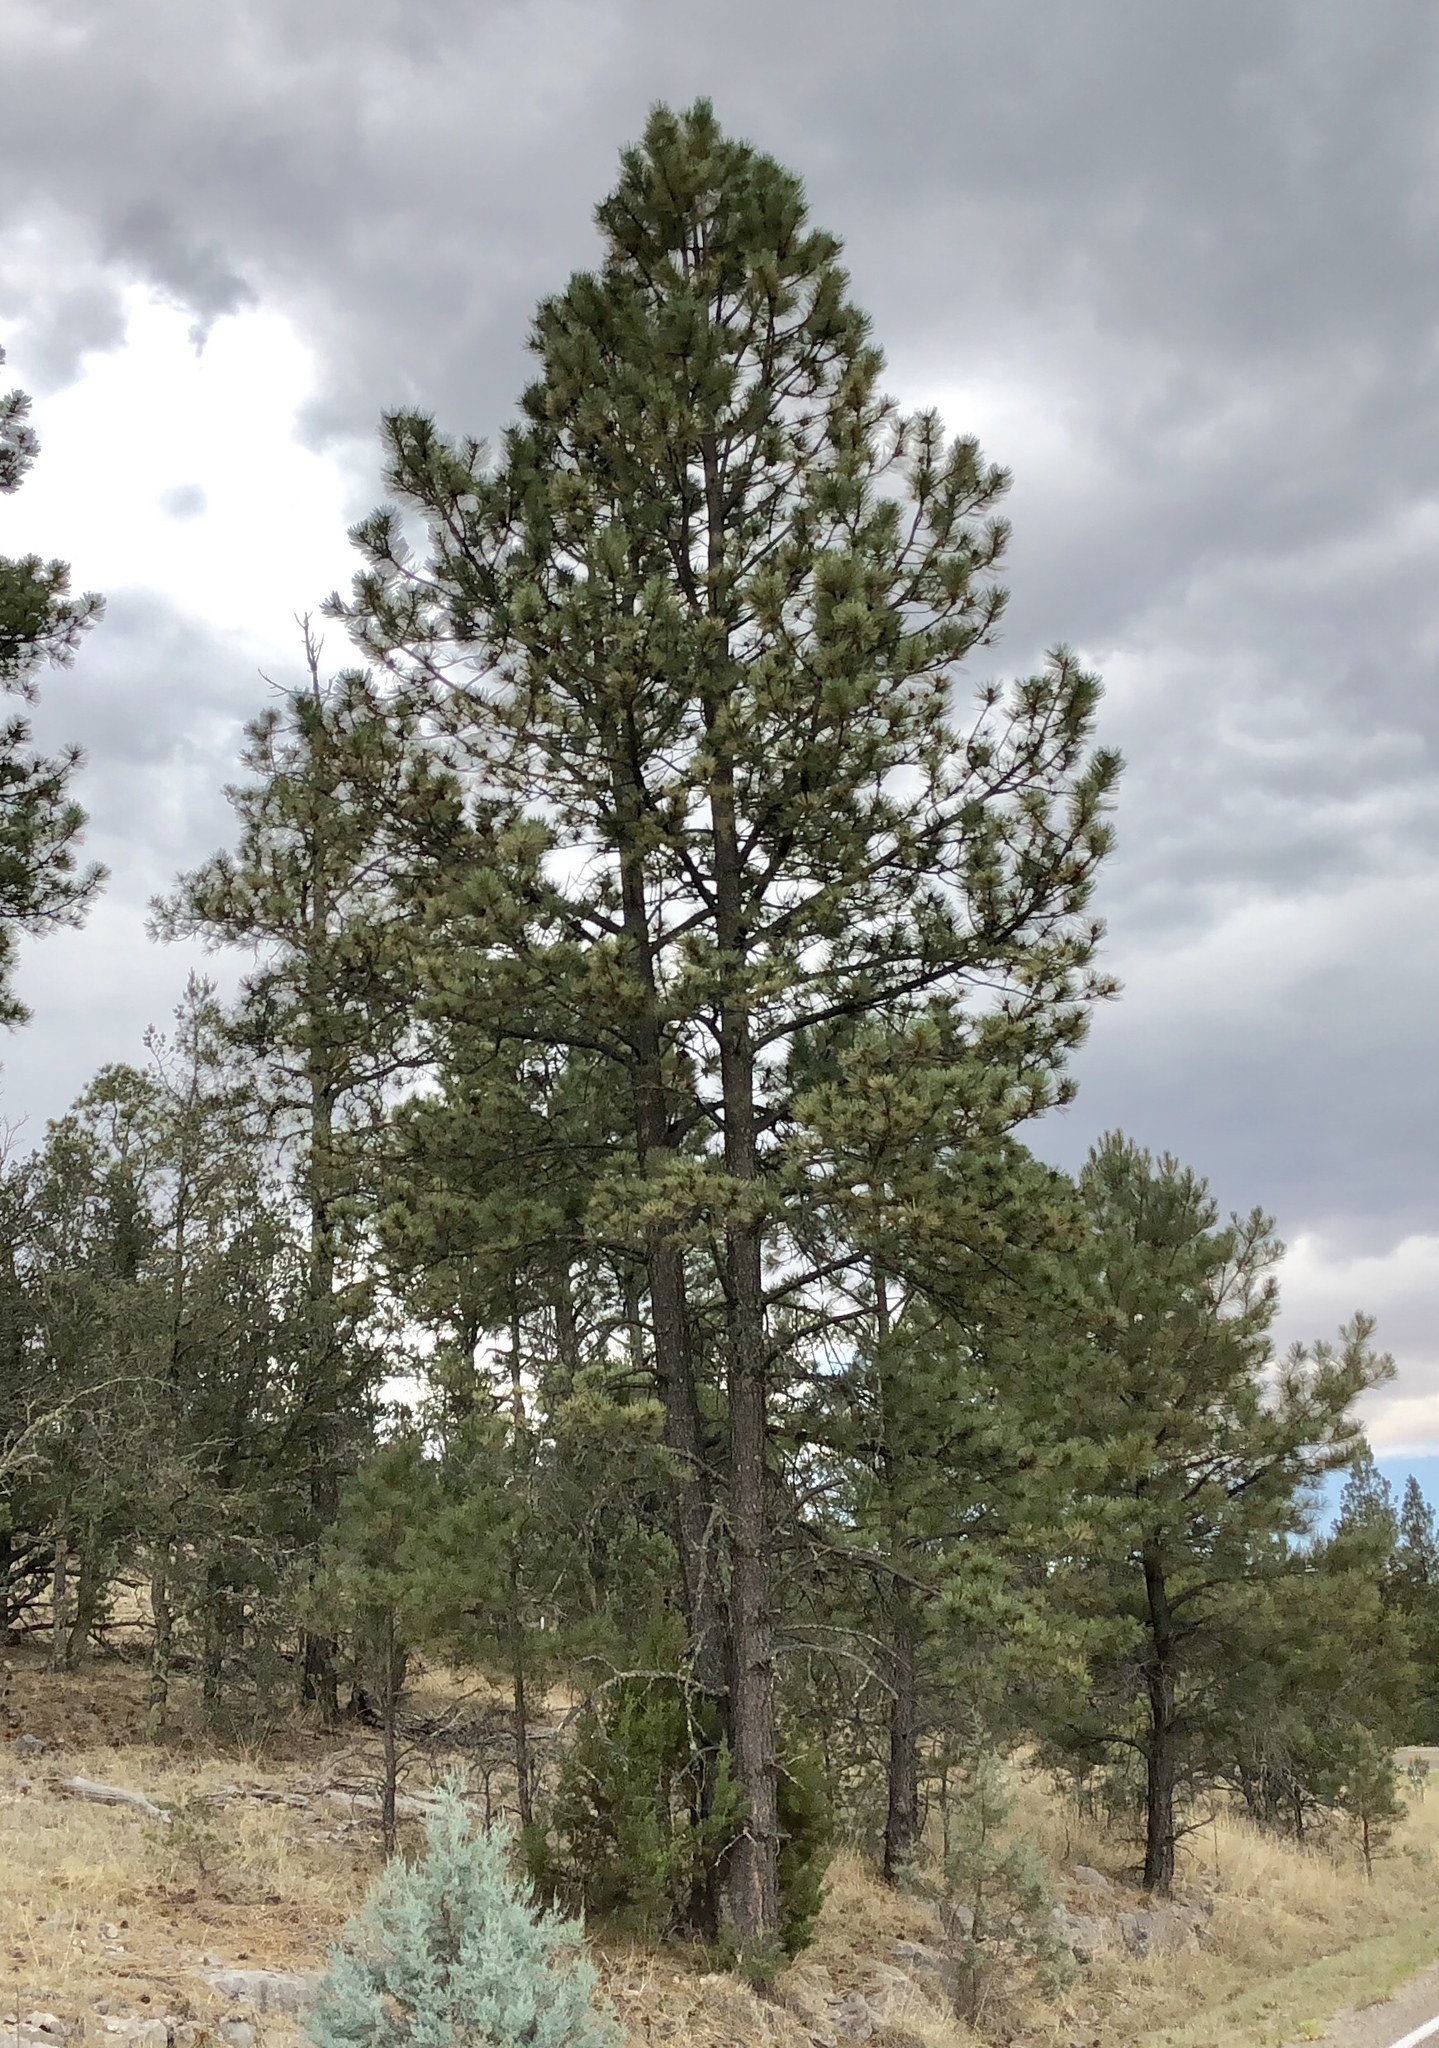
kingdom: Plantae
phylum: Tracheophyta
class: Pinopsida
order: Pinales
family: Pinaceae
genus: Pinus
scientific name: Pinus ponderosa
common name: Western yellow-pine
